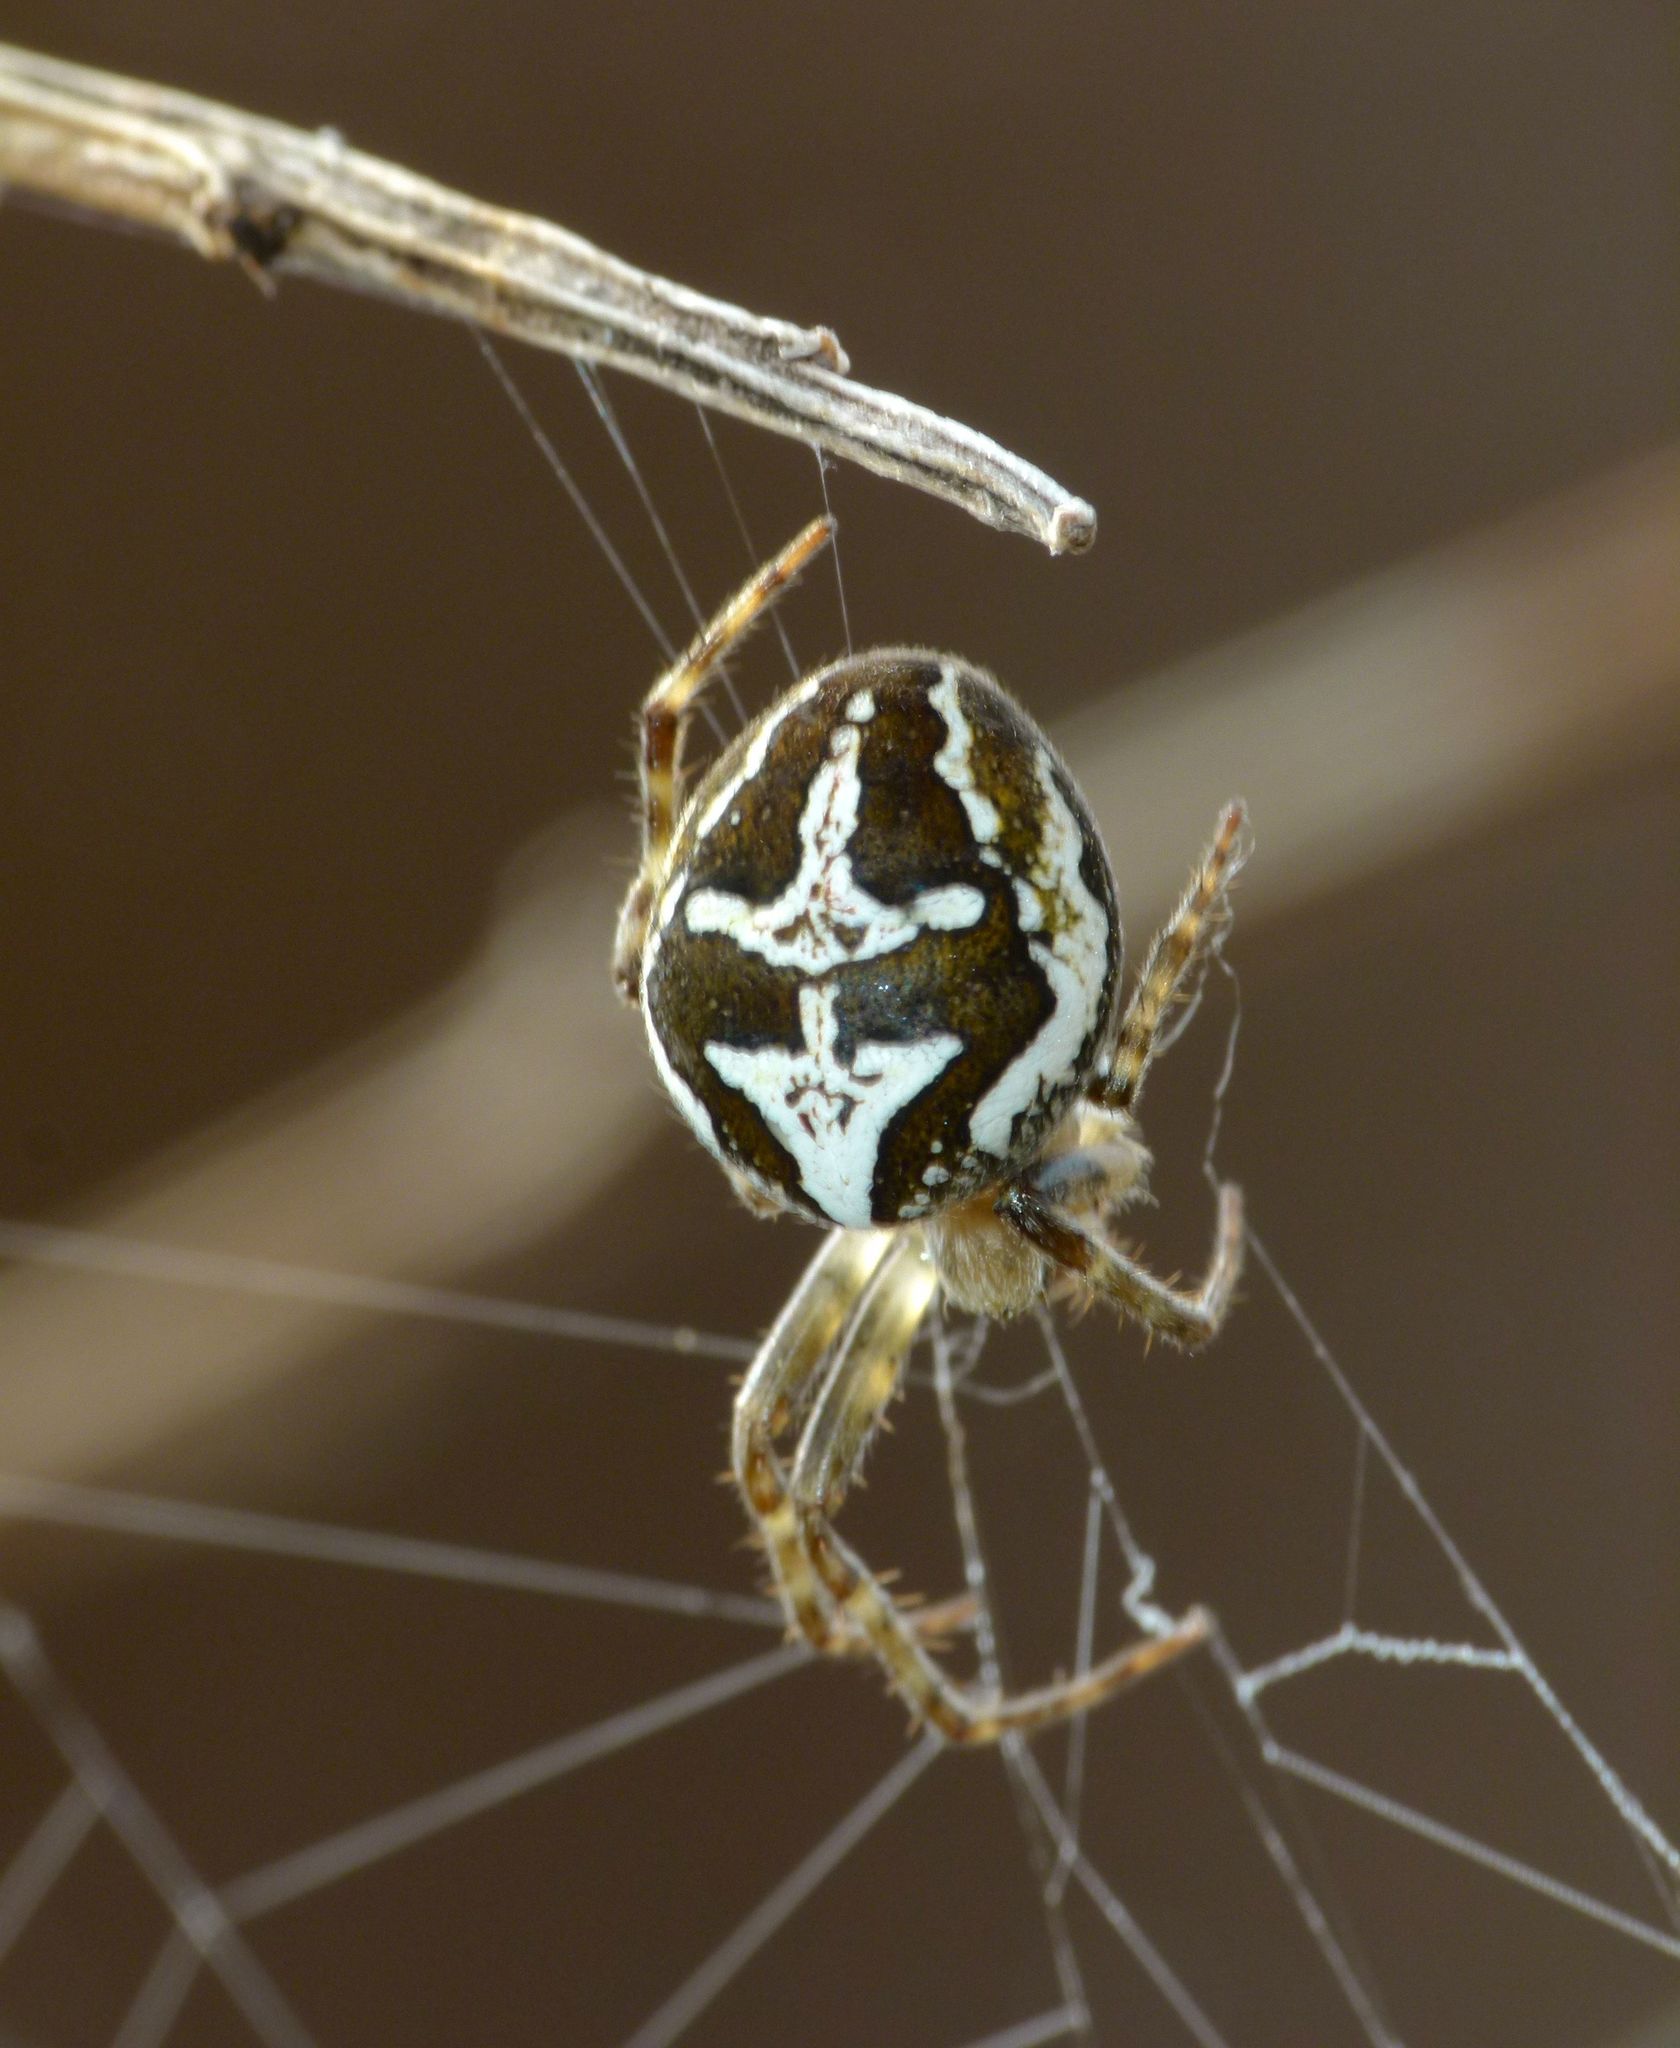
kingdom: Animalia
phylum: Arthropoda
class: Arachnida
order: Araneae
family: Araneidae
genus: Colaranea
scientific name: Colaranea verutum
